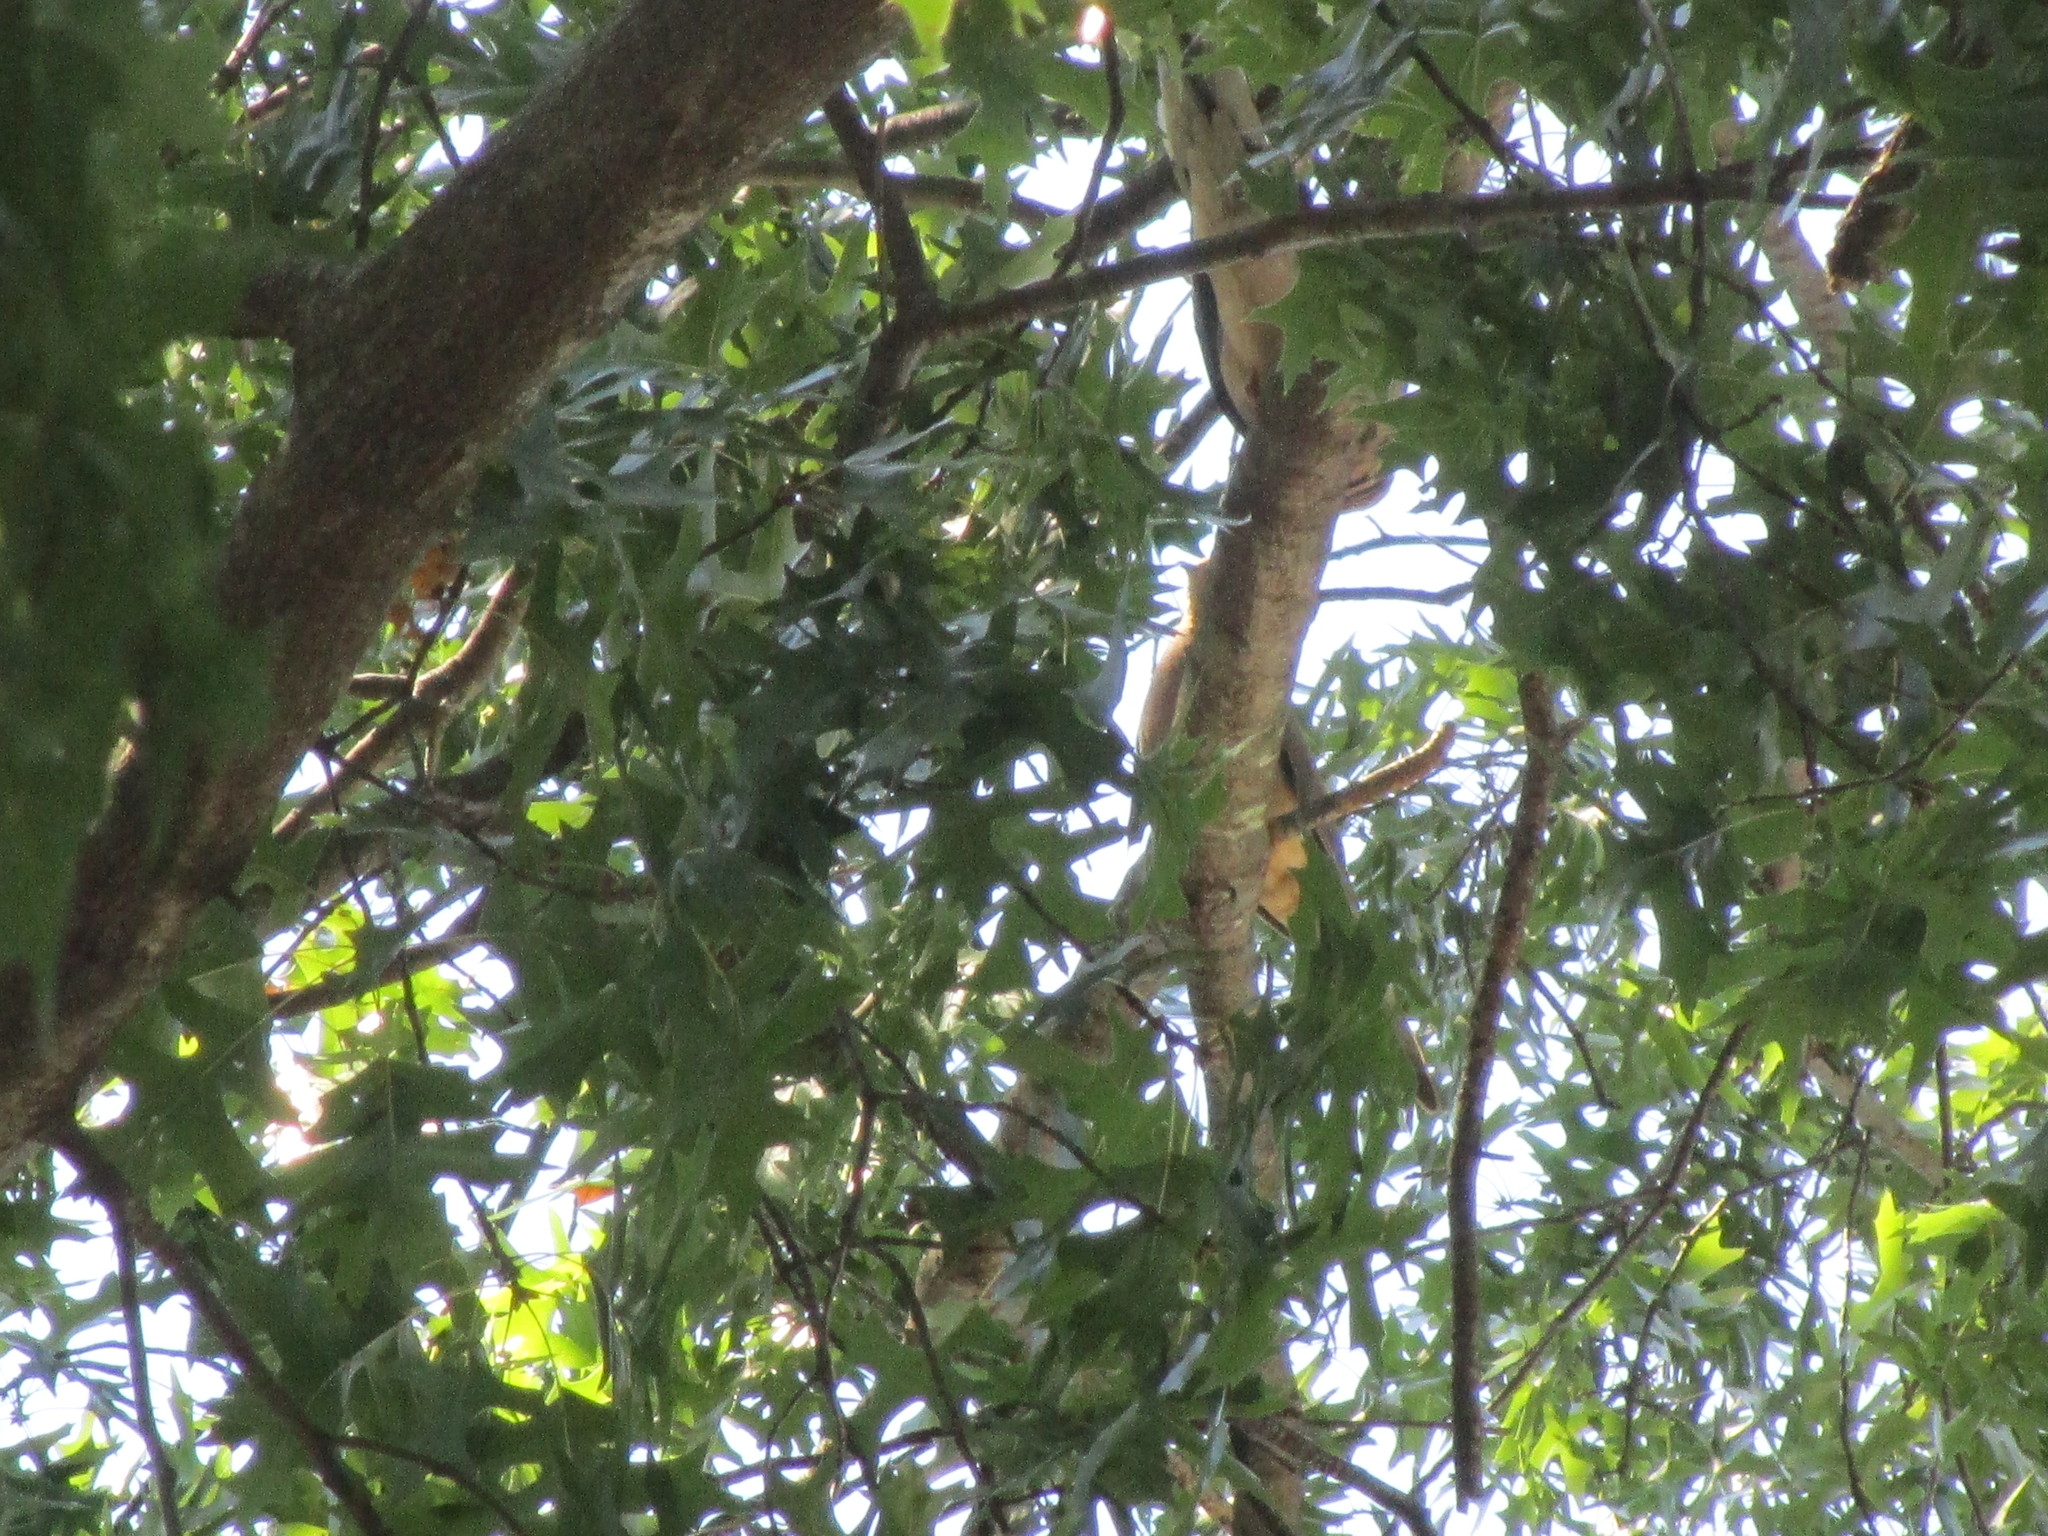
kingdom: Animalia
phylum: Chordata
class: Aves
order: Columbiformes
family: Columbidae
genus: Zenaida
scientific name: Zenaida macroura
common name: Mourning dove
